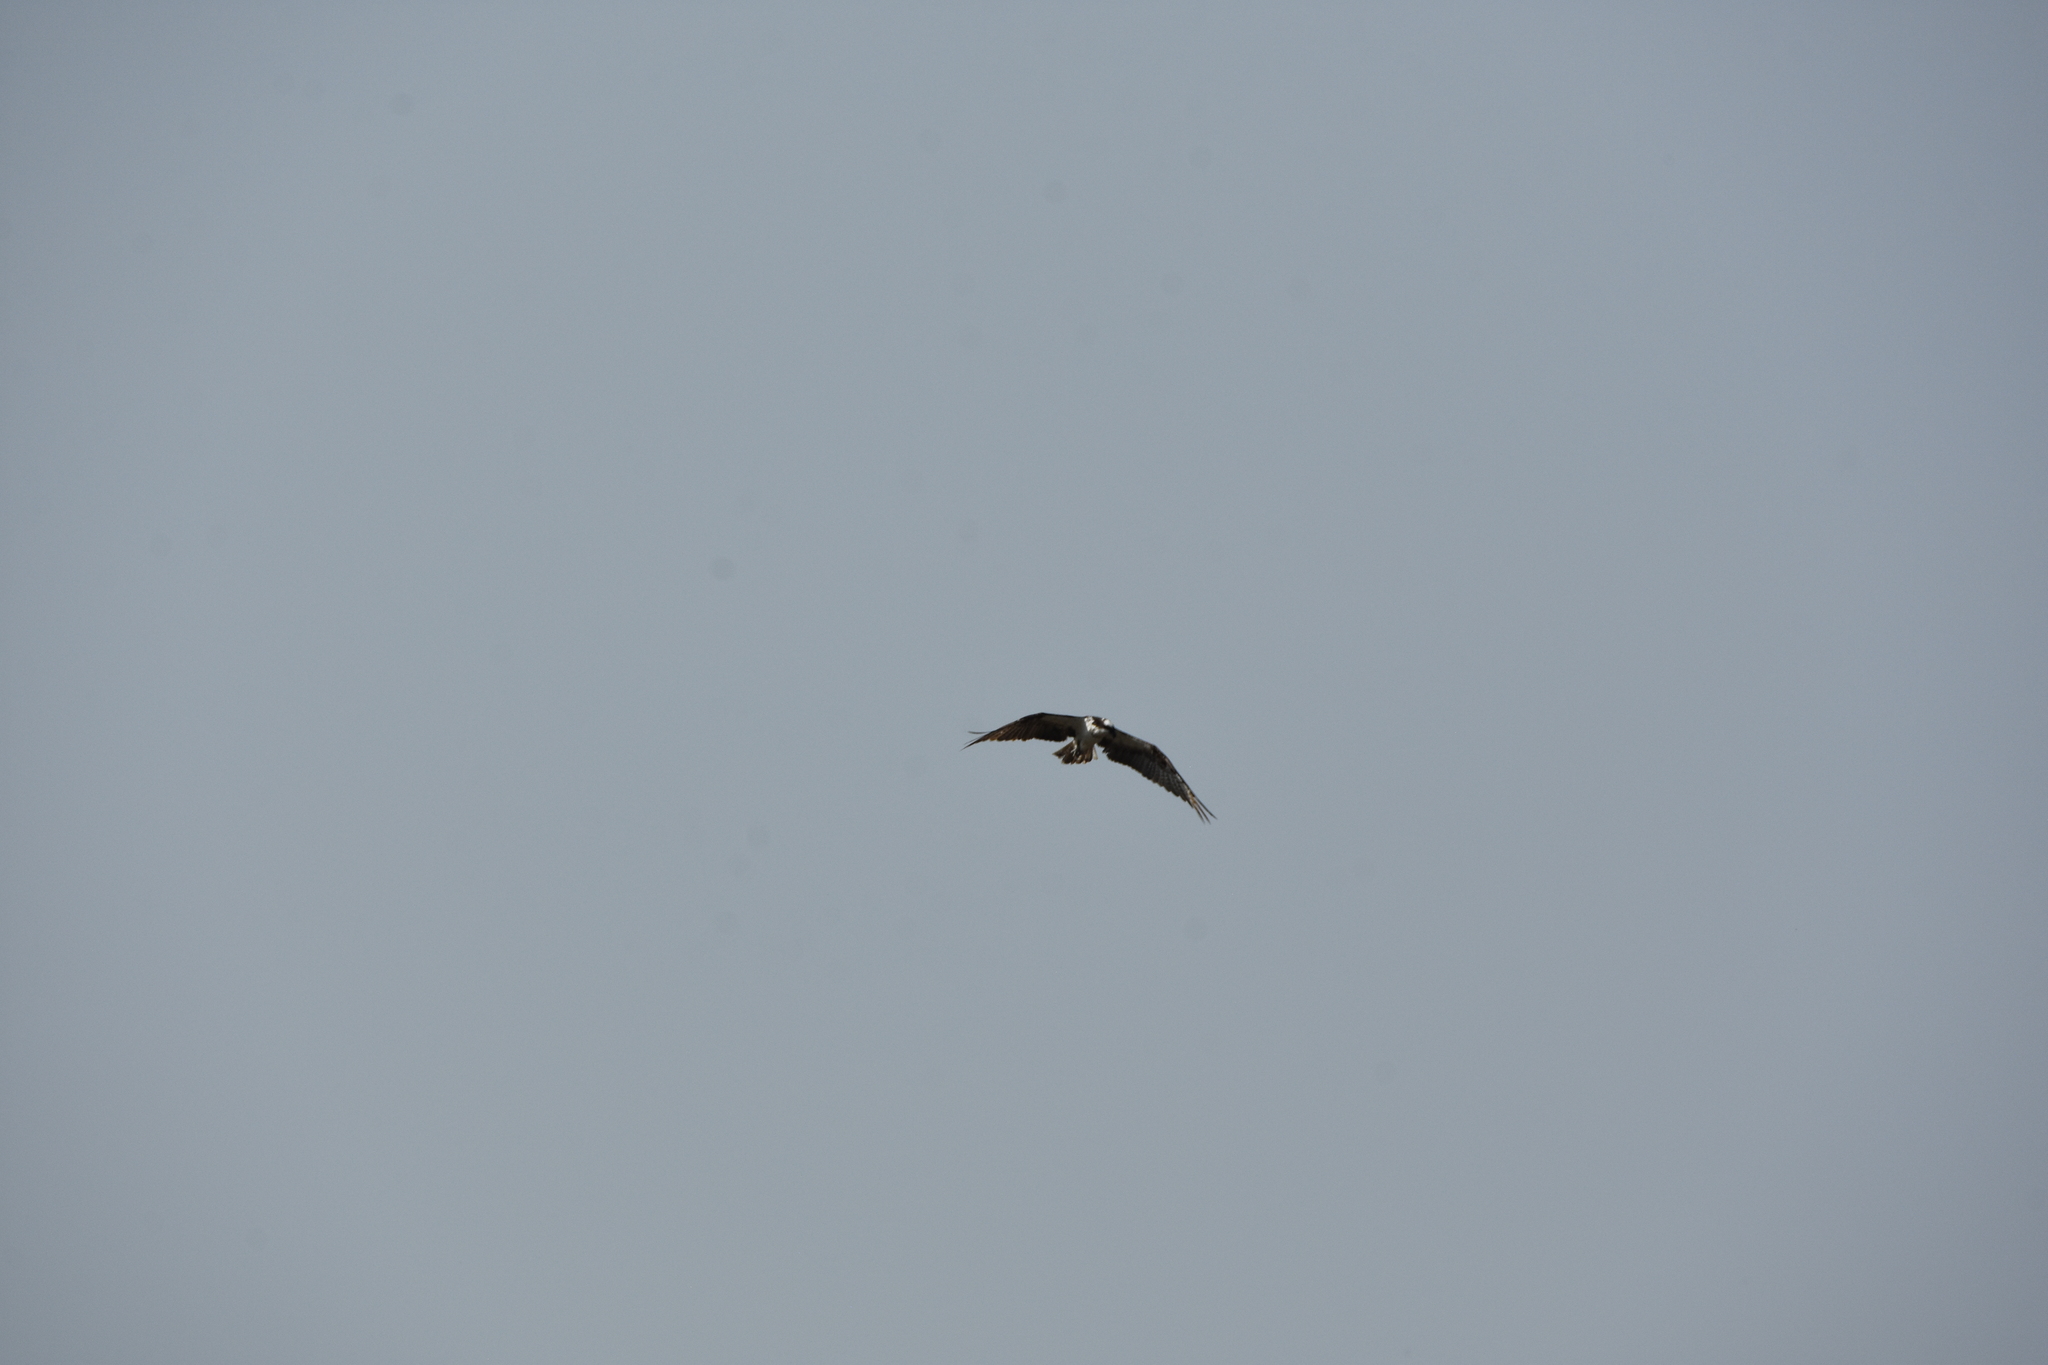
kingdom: Animalia
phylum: Chordata
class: Aves
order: Accipitriformes
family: Pandionidae
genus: Pandion
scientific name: Pandion haliaetus
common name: Osprey
